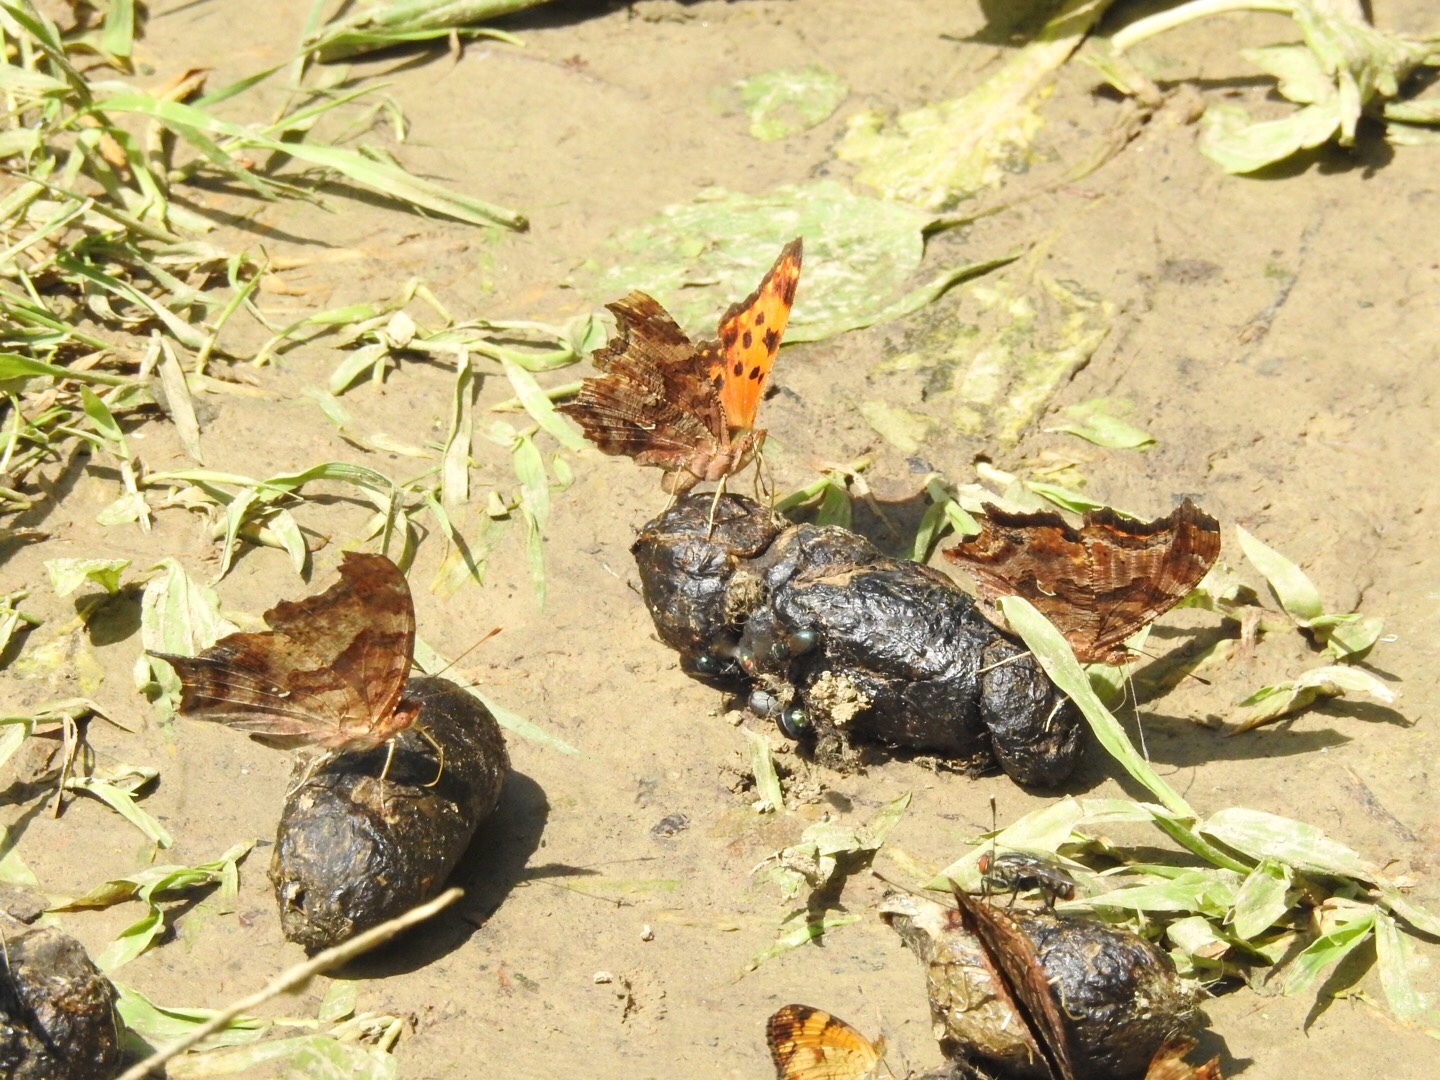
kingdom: Animalia
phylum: Arthropoda
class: Insecta
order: Lepidoptera
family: Nymphalidae
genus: Polygonia
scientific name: Polygonia interrogationis
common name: Question mark
